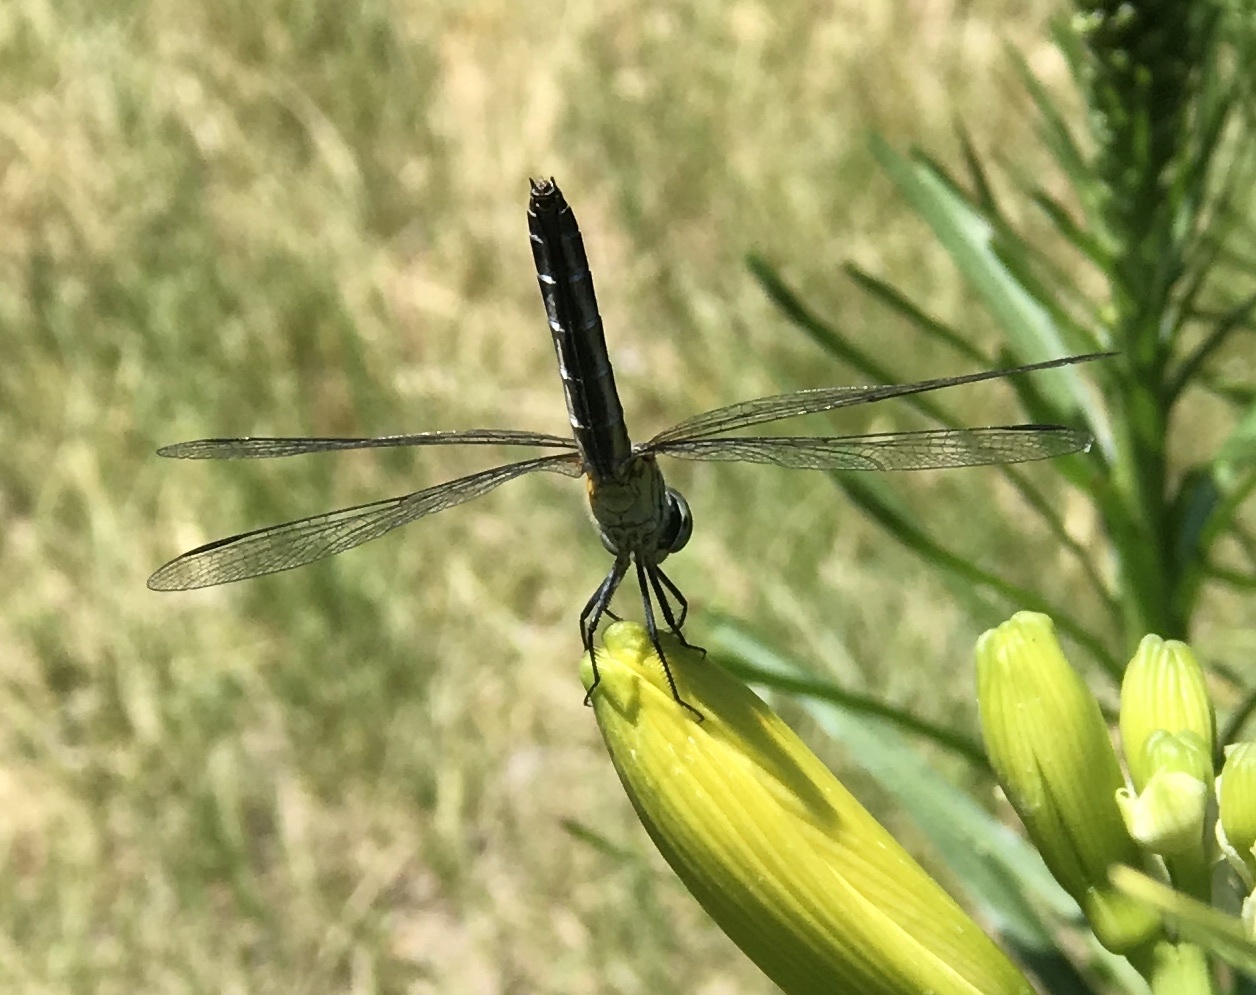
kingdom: Animalia
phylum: Arthropoda
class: Insecta
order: Odonata
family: Libellulidae
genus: Pachydiplax
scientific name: Pachydiplax longipennis
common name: Blue dasher
